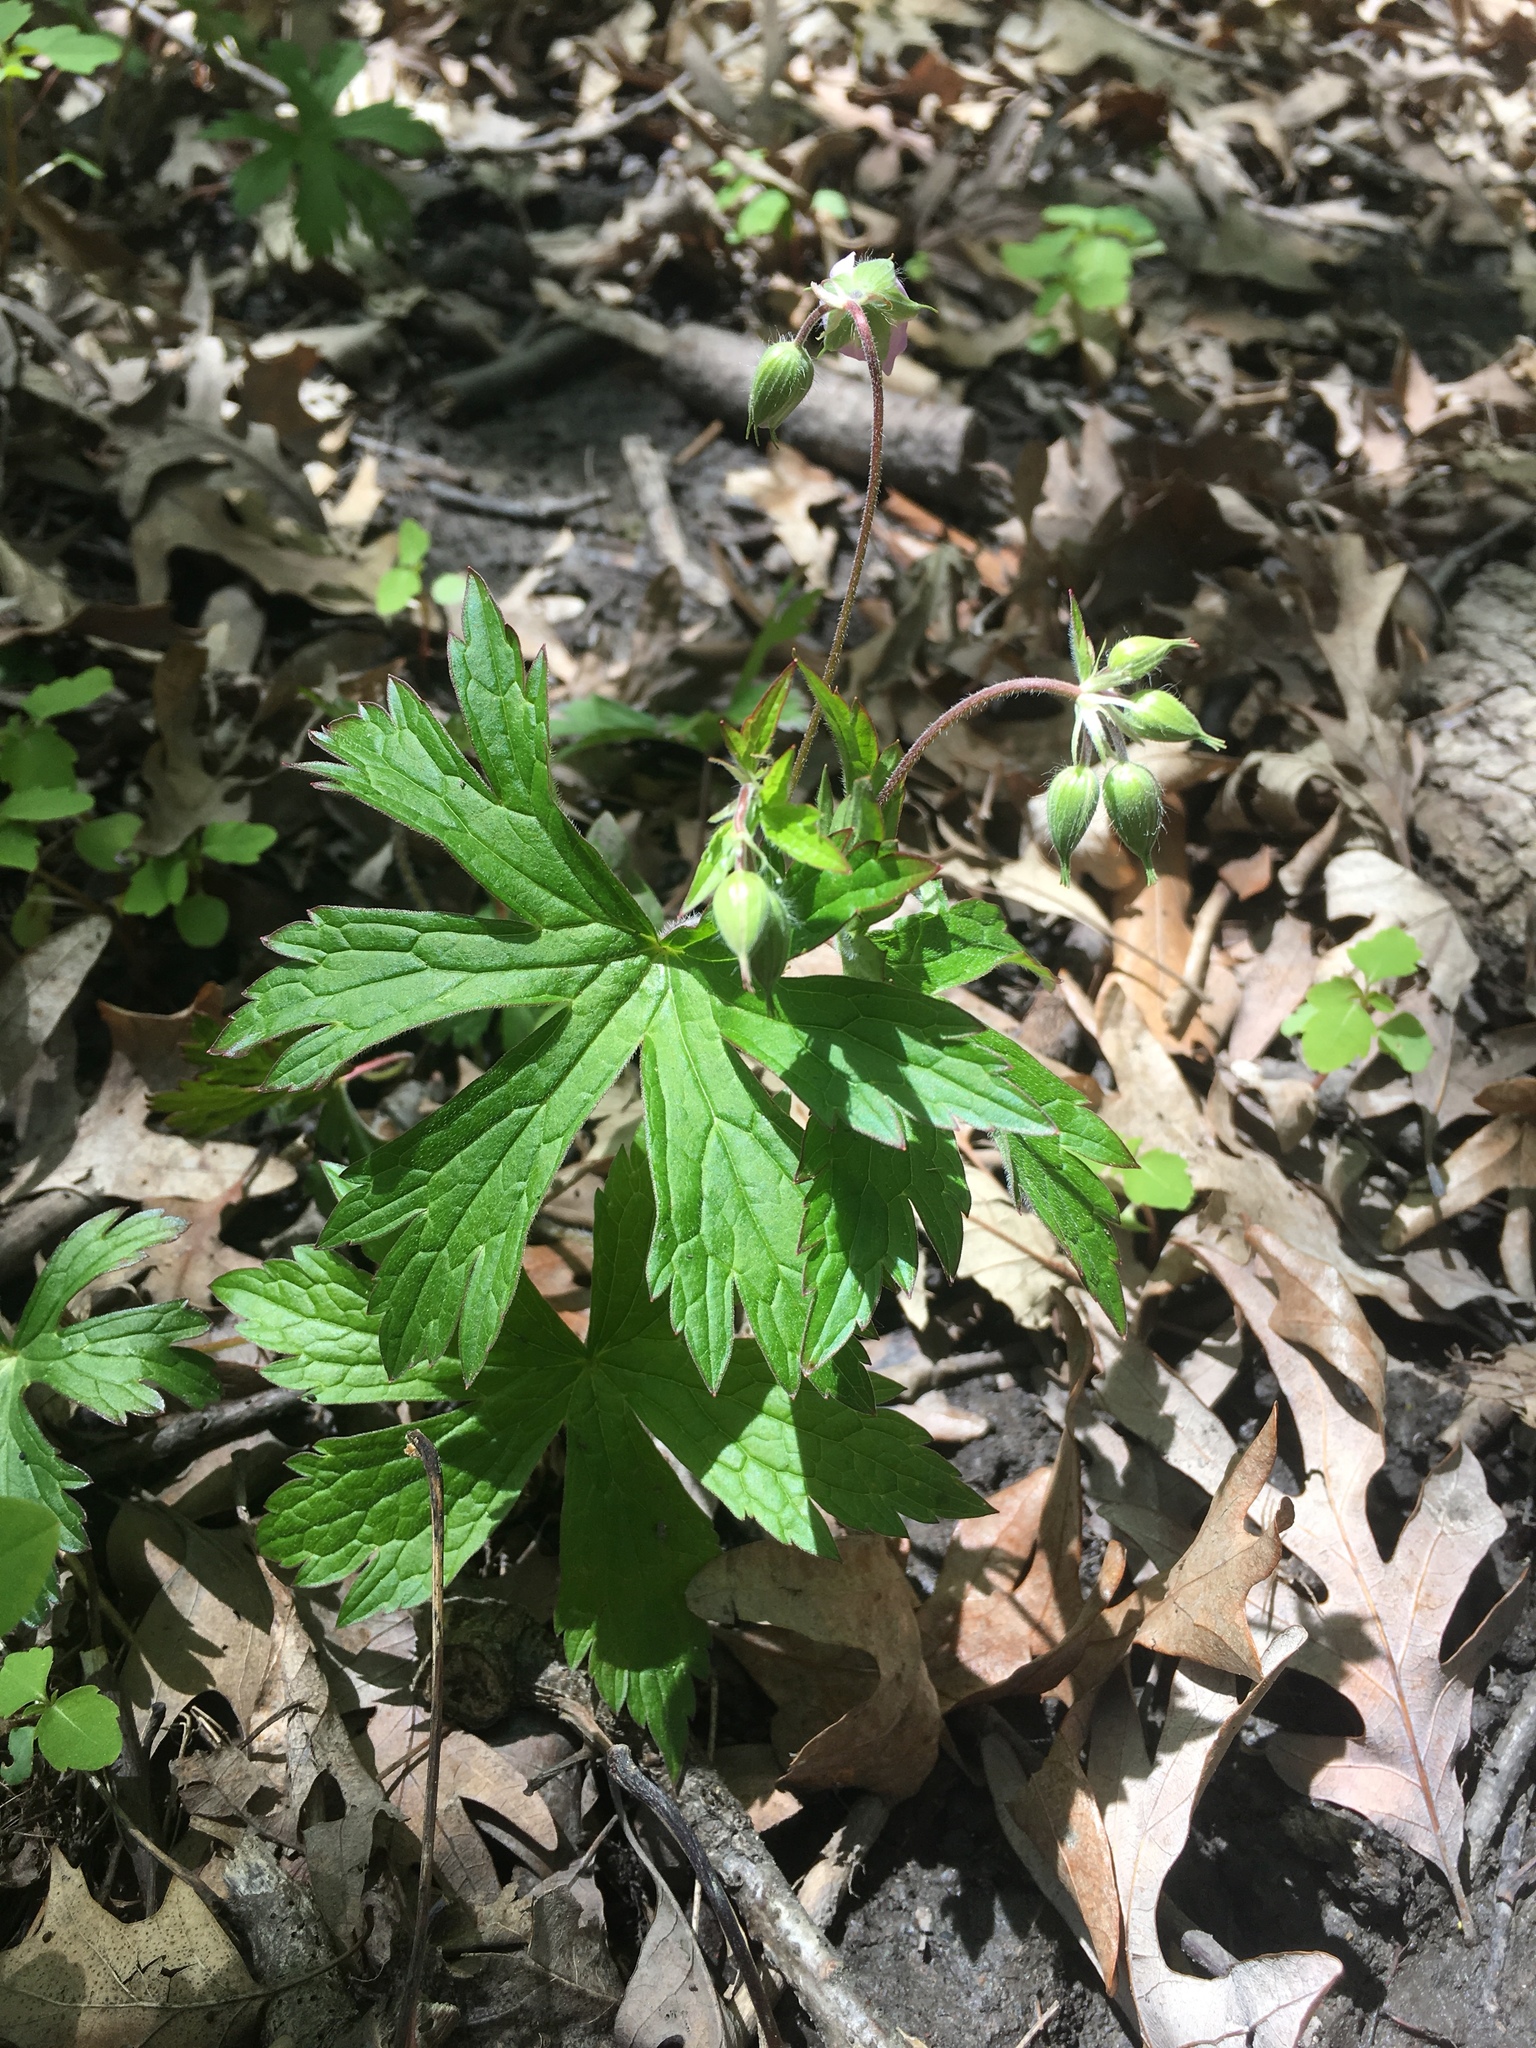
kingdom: Plantae
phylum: Tracheophyta
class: Magnoliopsida
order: Geraniales
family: Geraniaceae
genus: Geranium
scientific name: Geranium maculatum
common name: Spotted geranium
